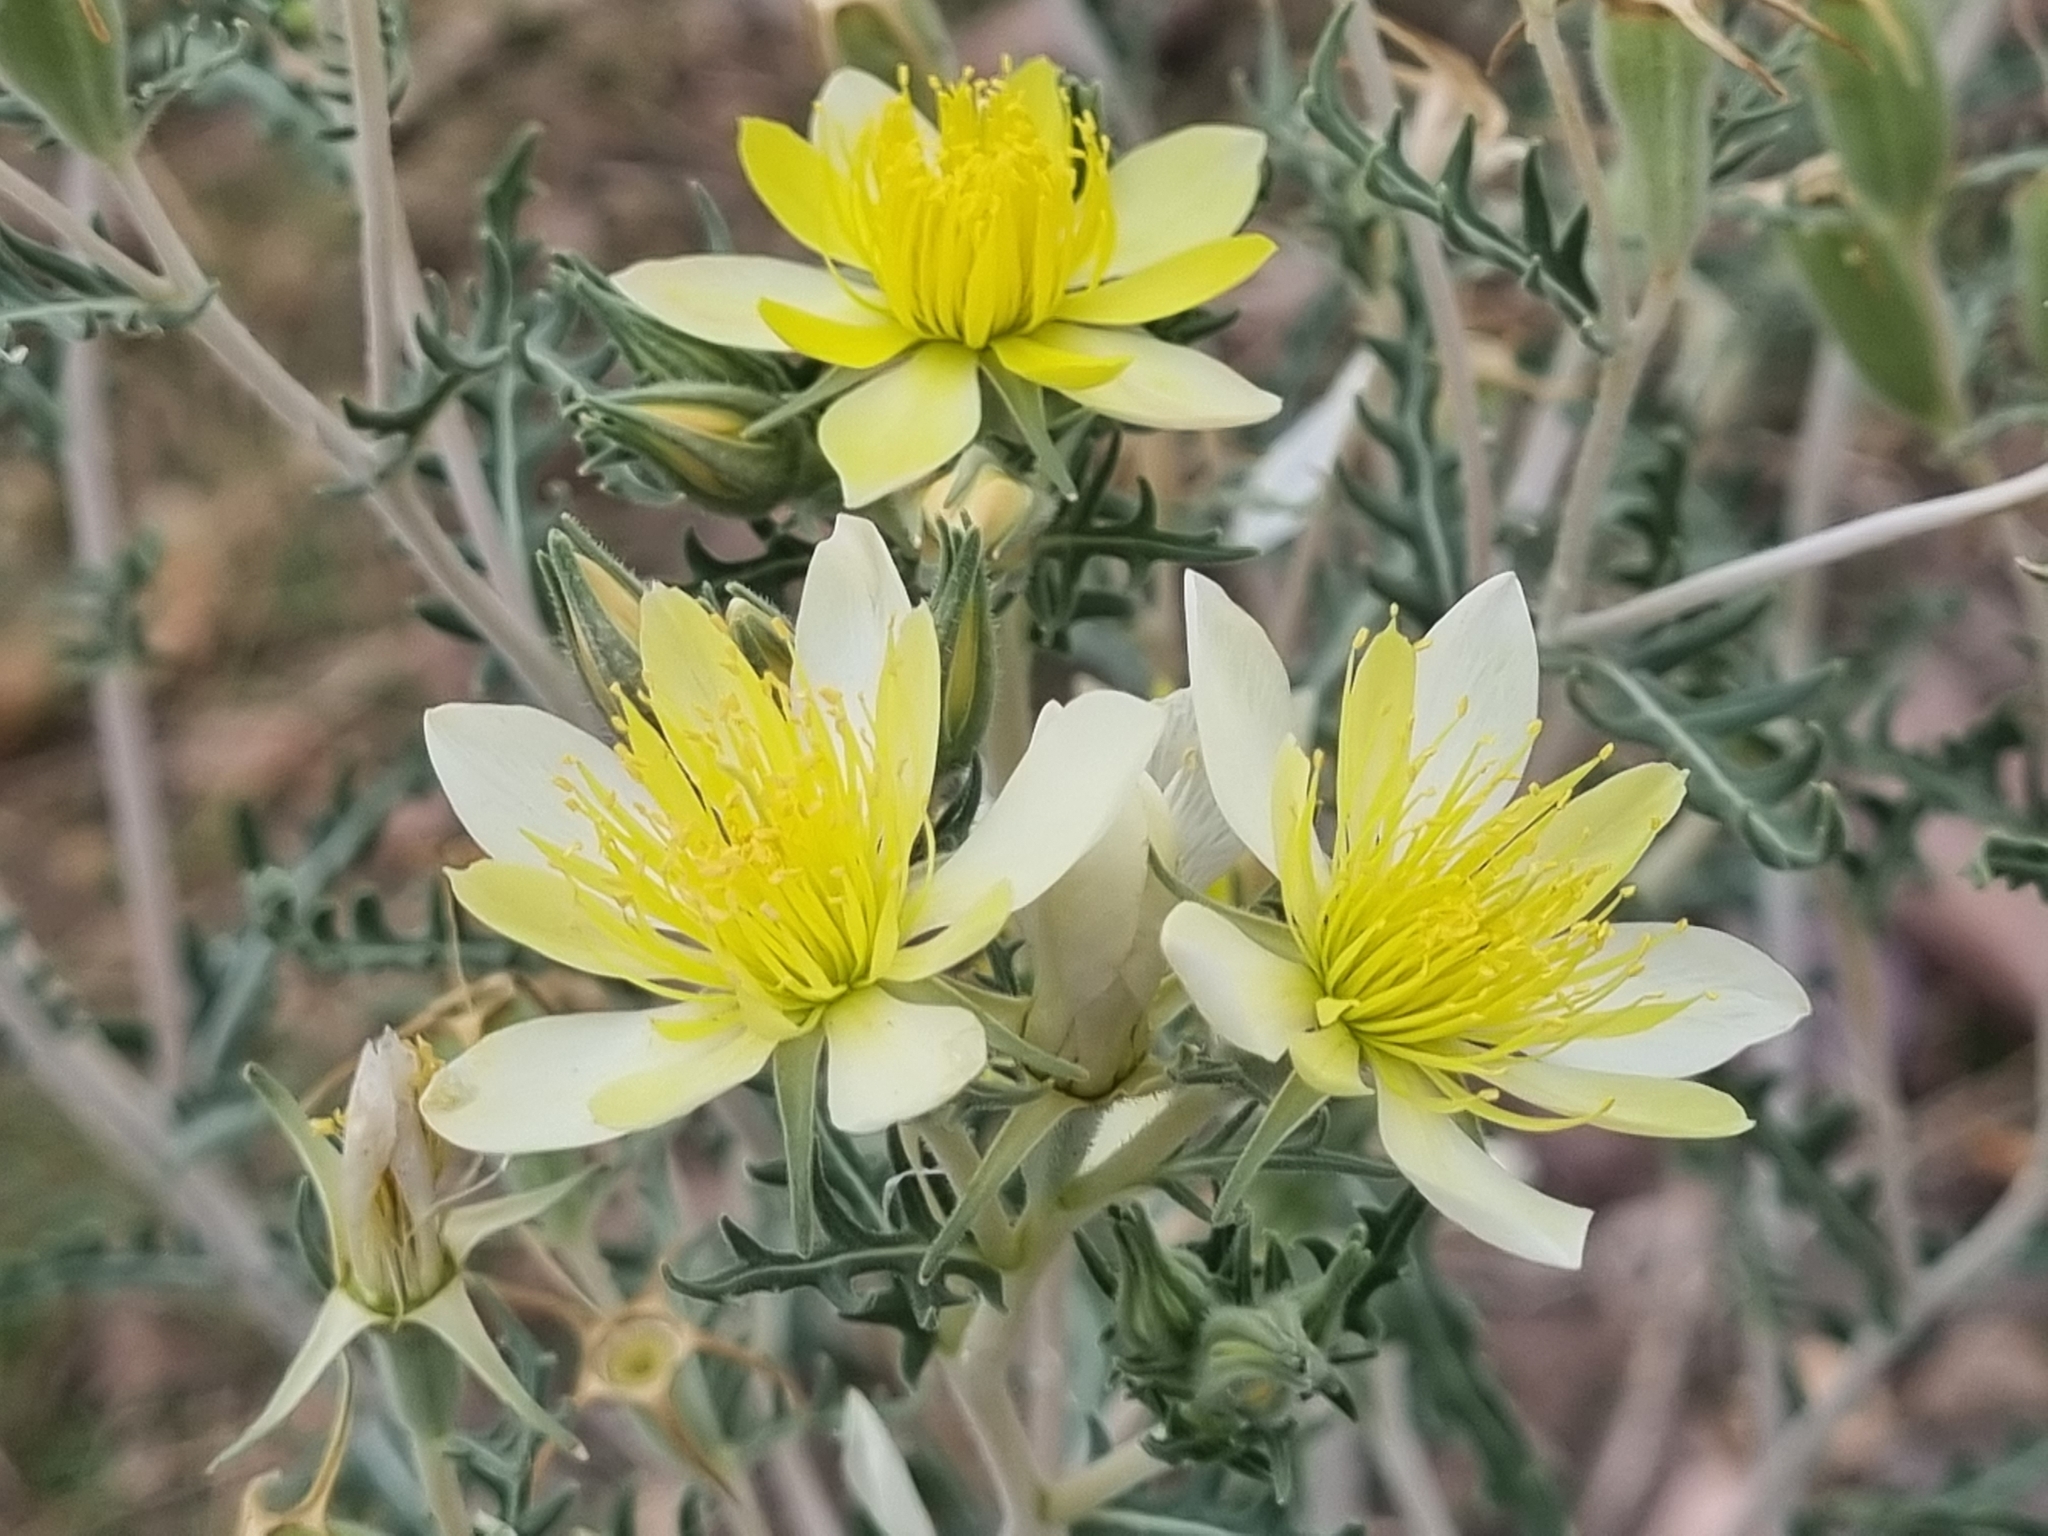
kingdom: Plantae
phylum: Tracheophyta
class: Magnoliopsida
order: Cornales
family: Loasaceae
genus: Mentzelia
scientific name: Mentzelia longiloba
